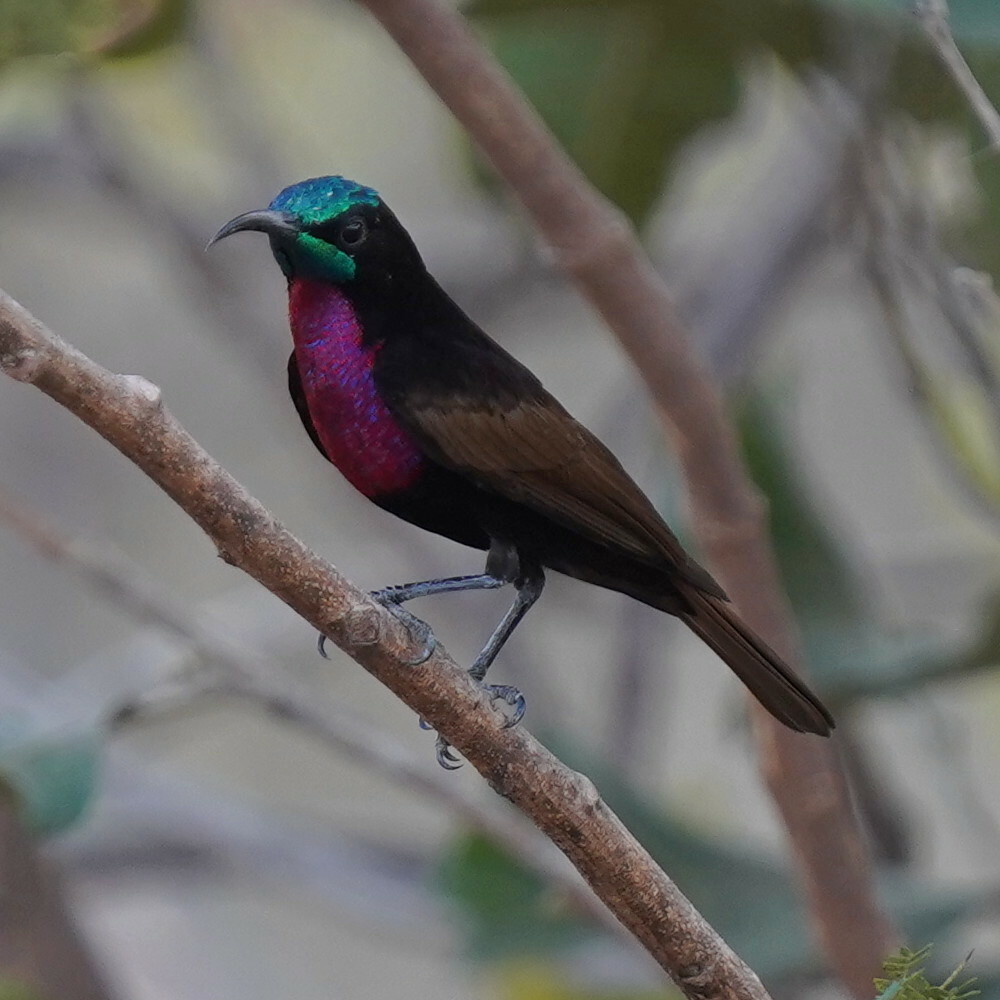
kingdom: Animalia
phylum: Chordata
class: Aves
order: Passeriformes
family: Nectariniidae
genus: Chalcomitra
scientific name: Chalcomitra senegalensis
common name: Scarlet-chested sunbird
